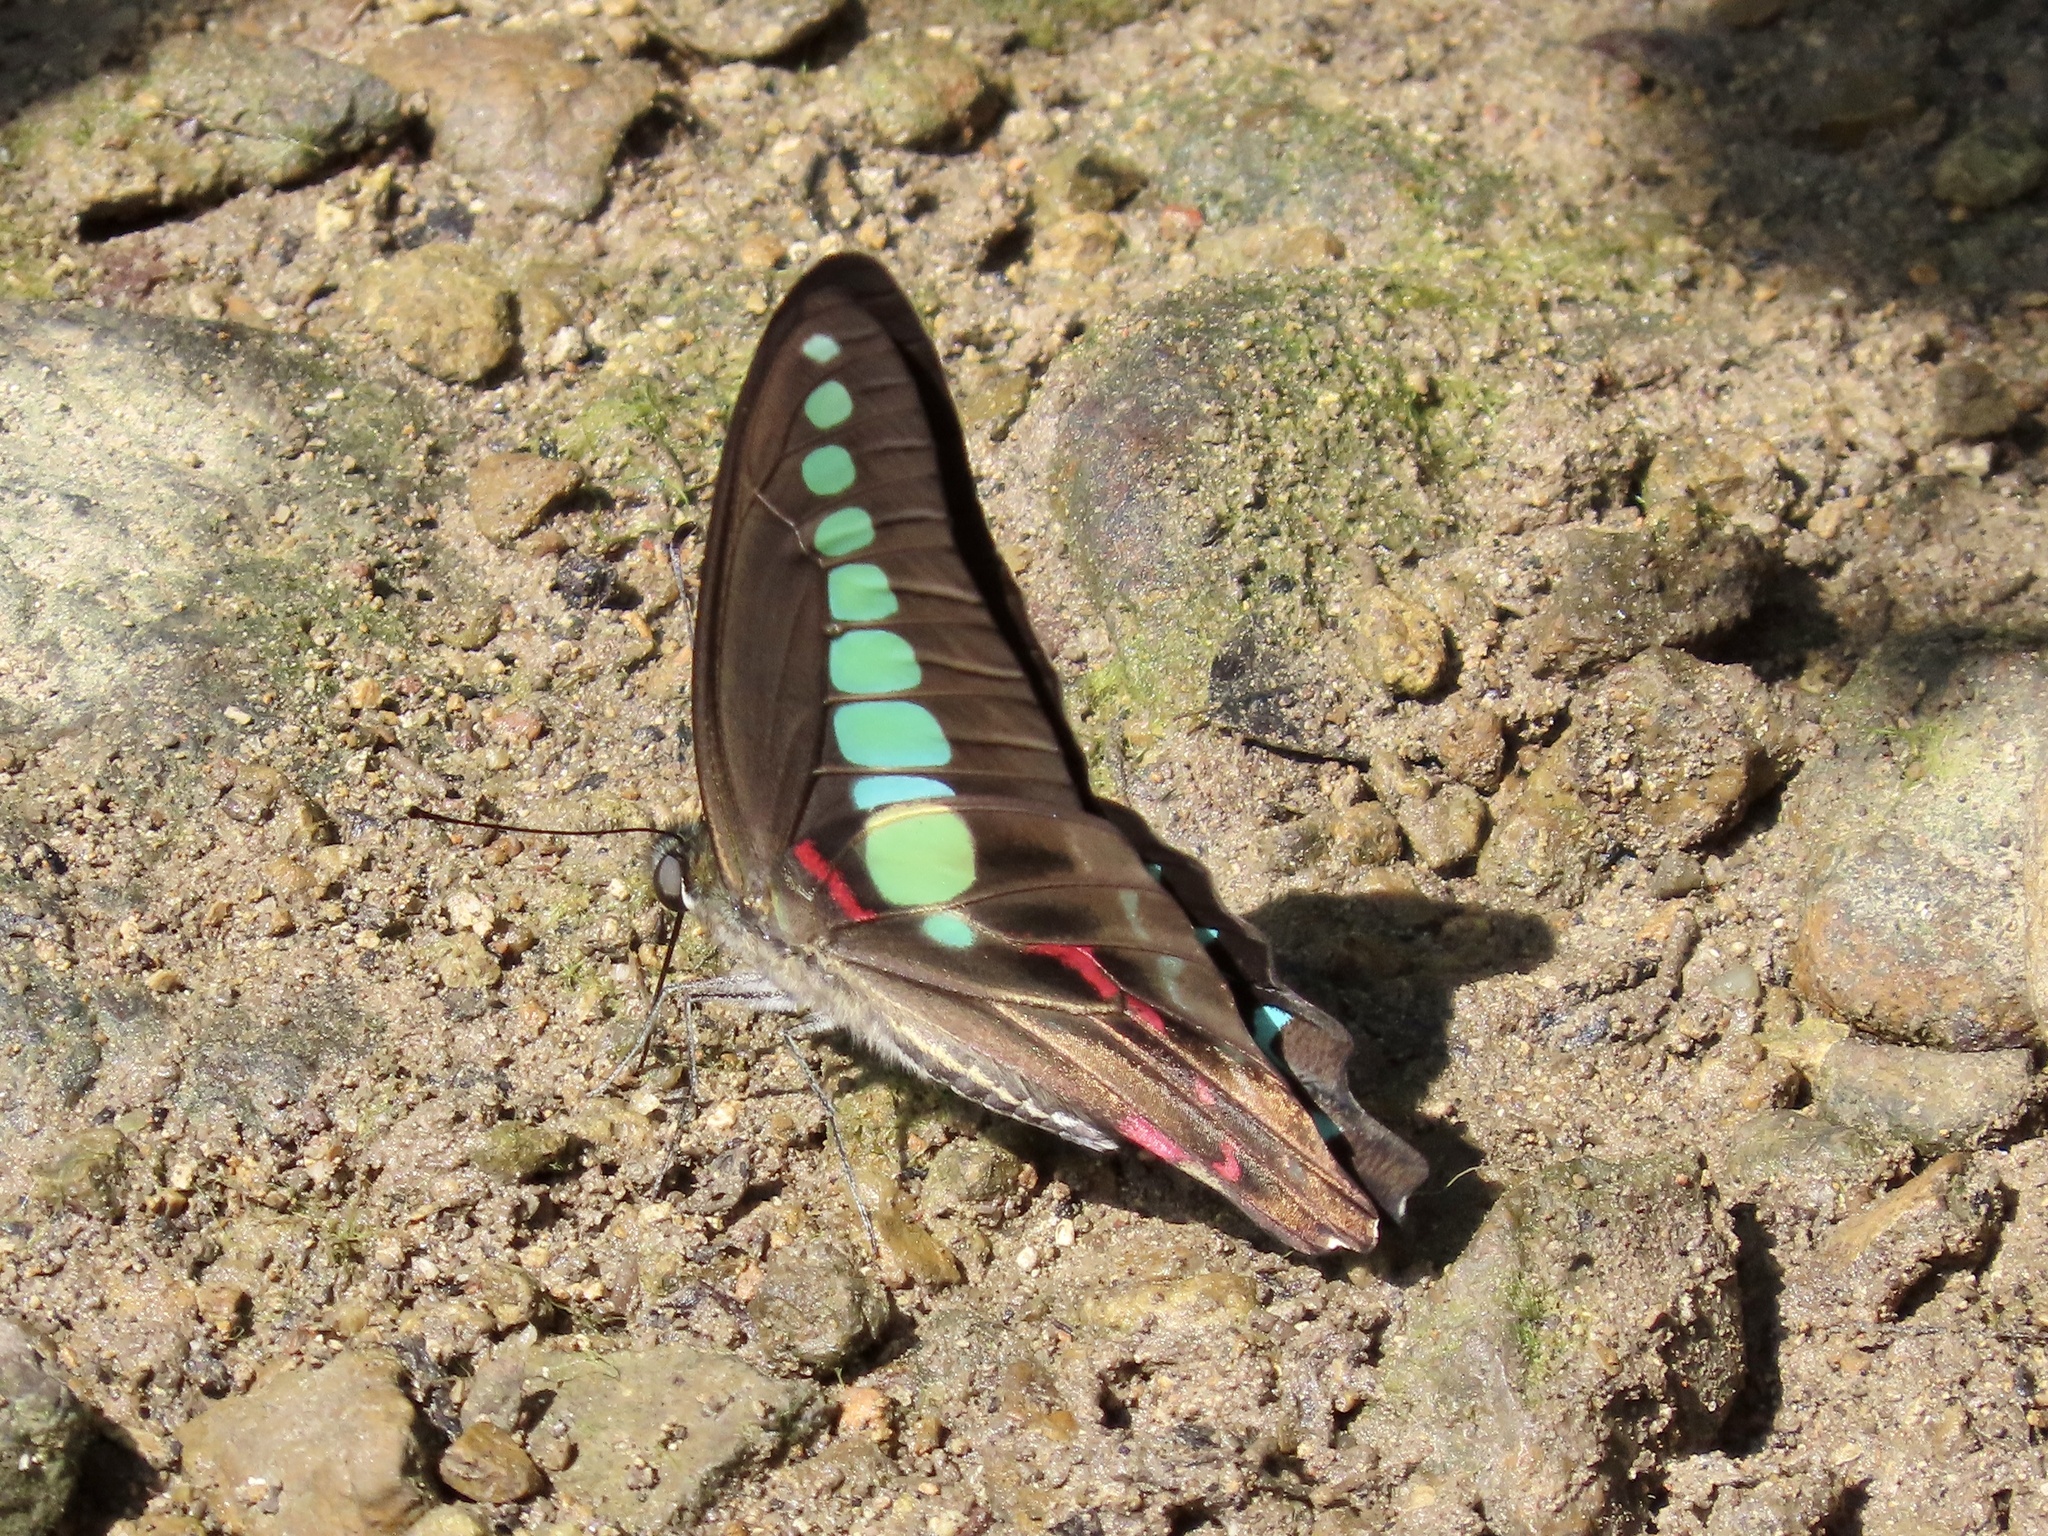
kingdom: Fungi
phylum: Ascomycota
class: Sordariomycetes
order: Microascales
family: Microascaceae
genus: Graphium
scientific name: Graphium sarpedon
